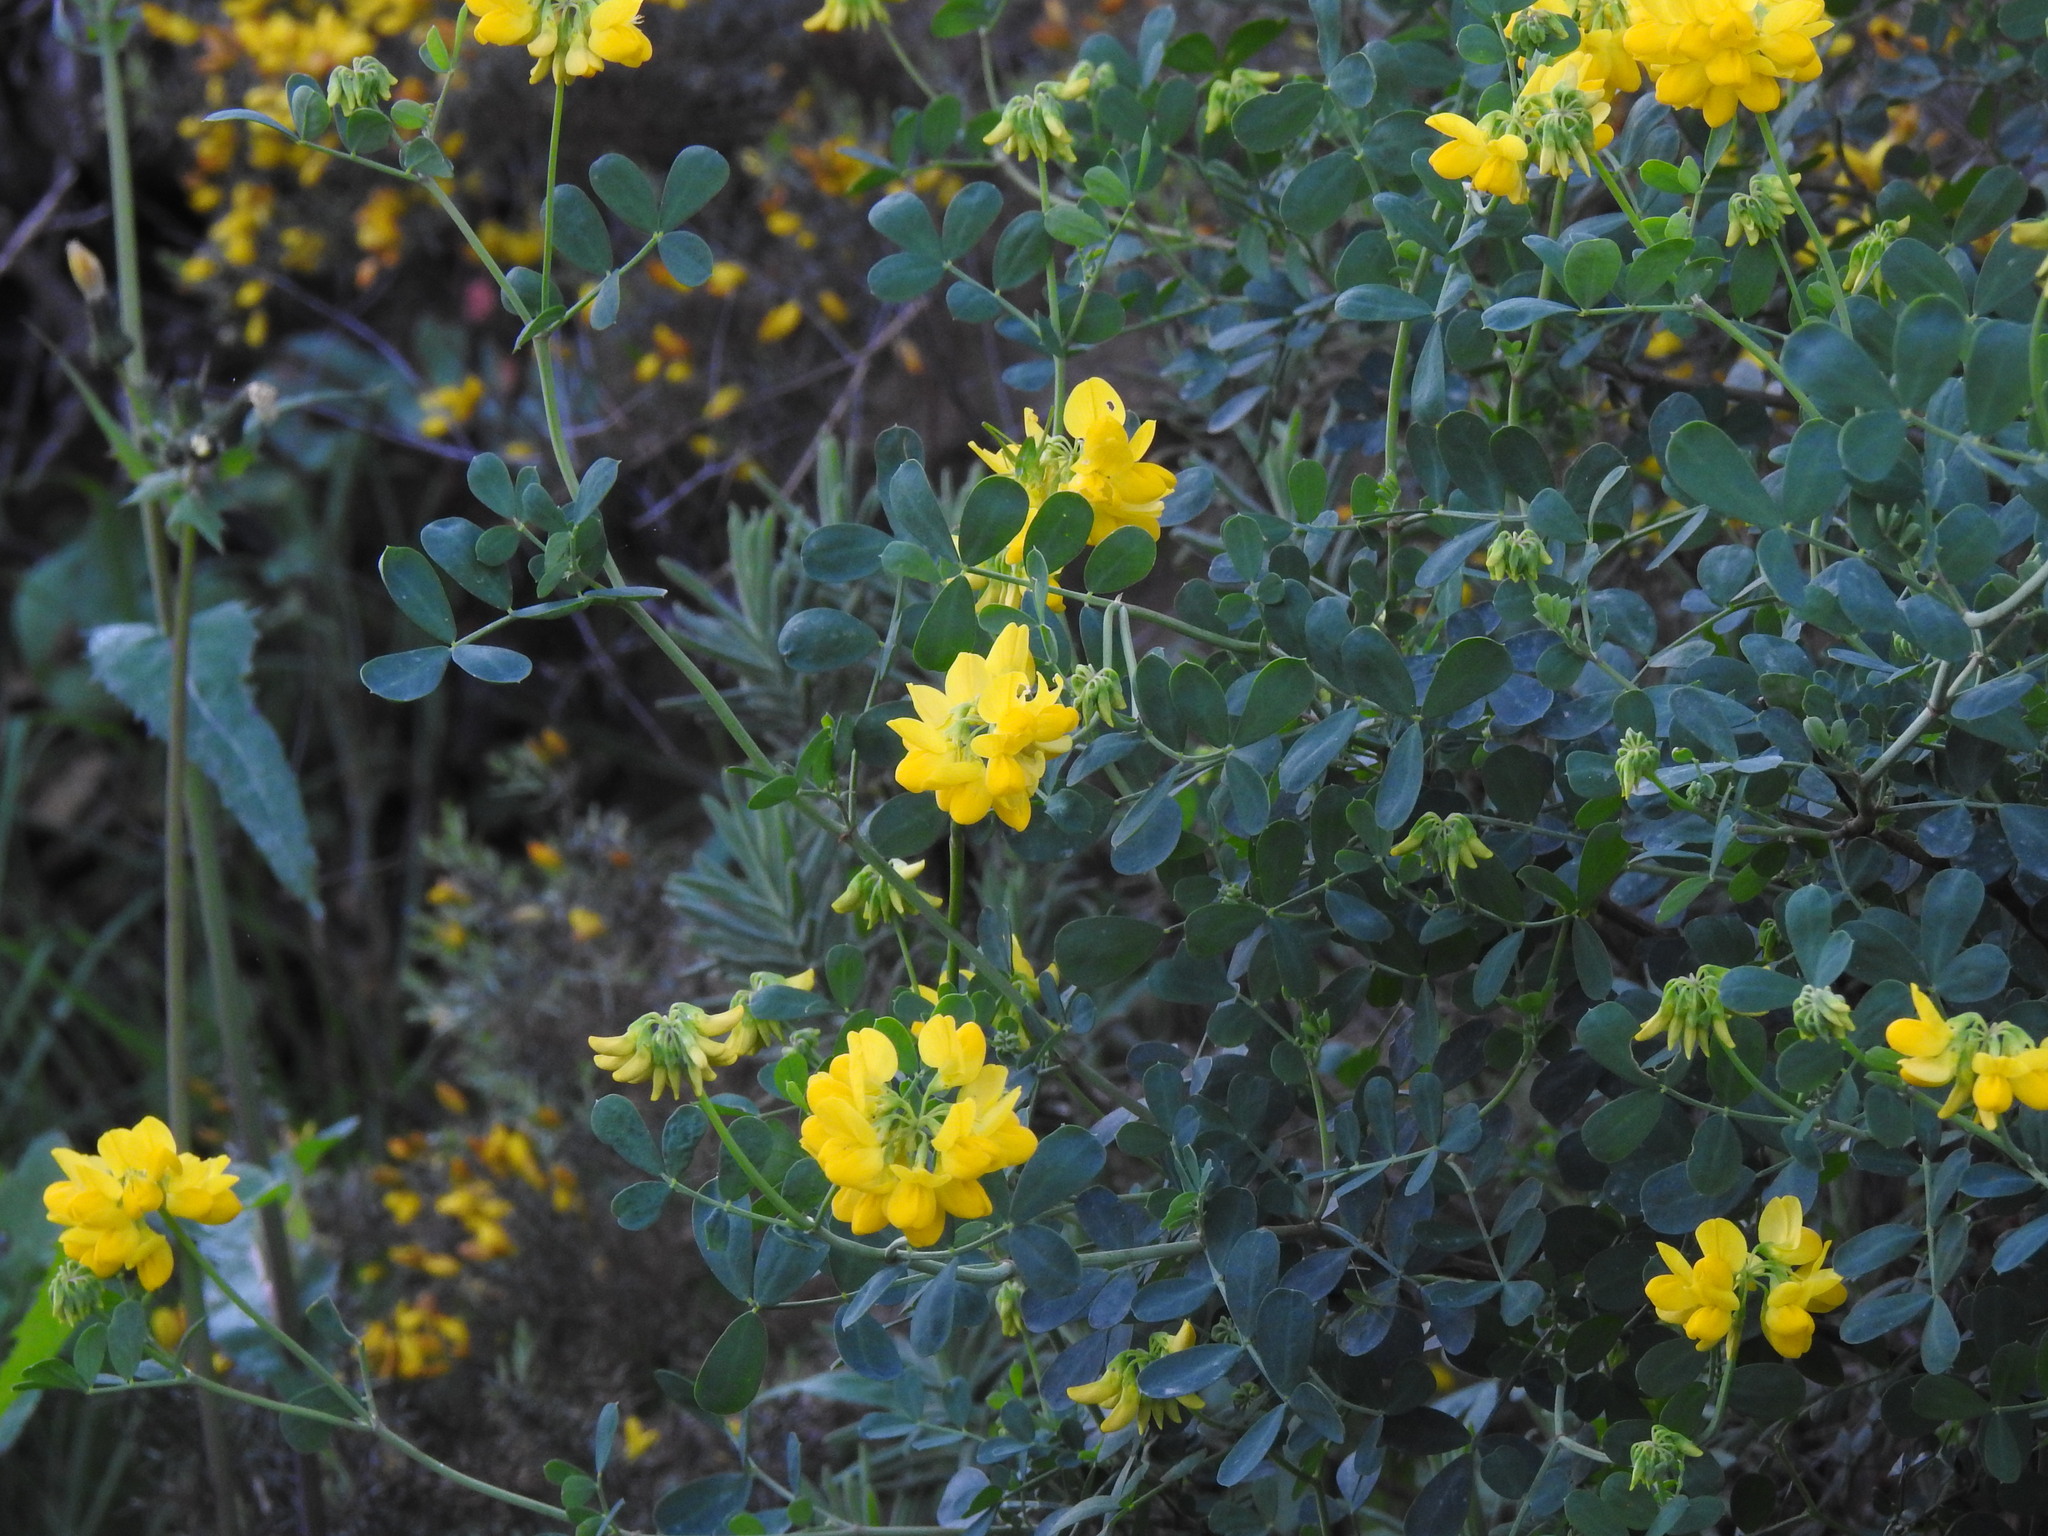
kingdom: Plantae
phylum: Tracheophyta
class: Magnoliopsida
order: Fabales
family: Fabaceae
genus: Coronilla
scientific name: Coronilla valentina
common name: Shrubby scorpion-vetch
